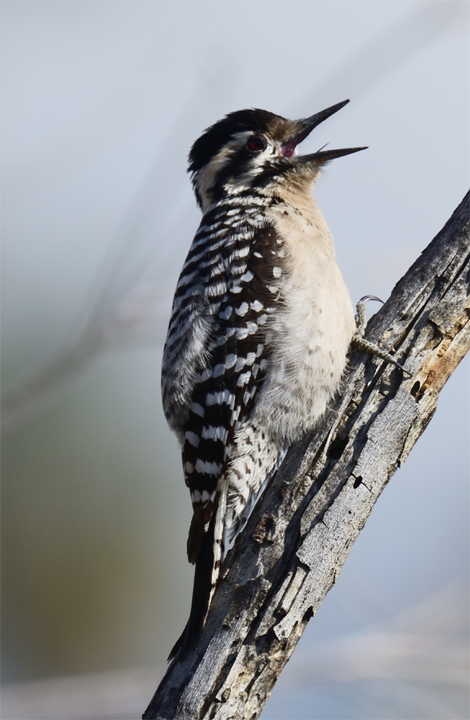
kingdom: Animalia
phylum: Chordata
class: Aves
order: Piciformes
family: Picidae
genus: Dryobates
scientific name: Dryobates scalaris
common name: Ladder-backed woodpecker
